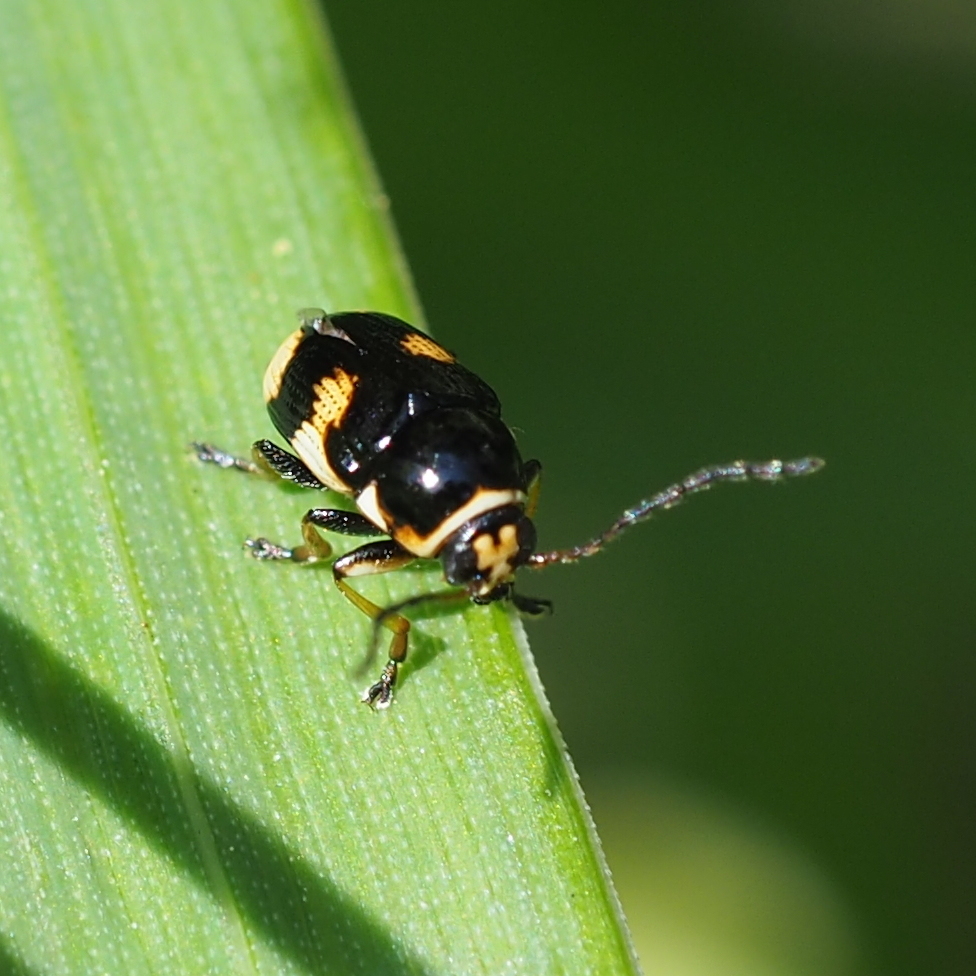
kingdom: Animalia
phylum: Arthropoda
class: Insecta
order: Coleoptera
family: Chrysomelidae
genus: Cryptocephalus
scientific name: Cryptocephalus moraei
